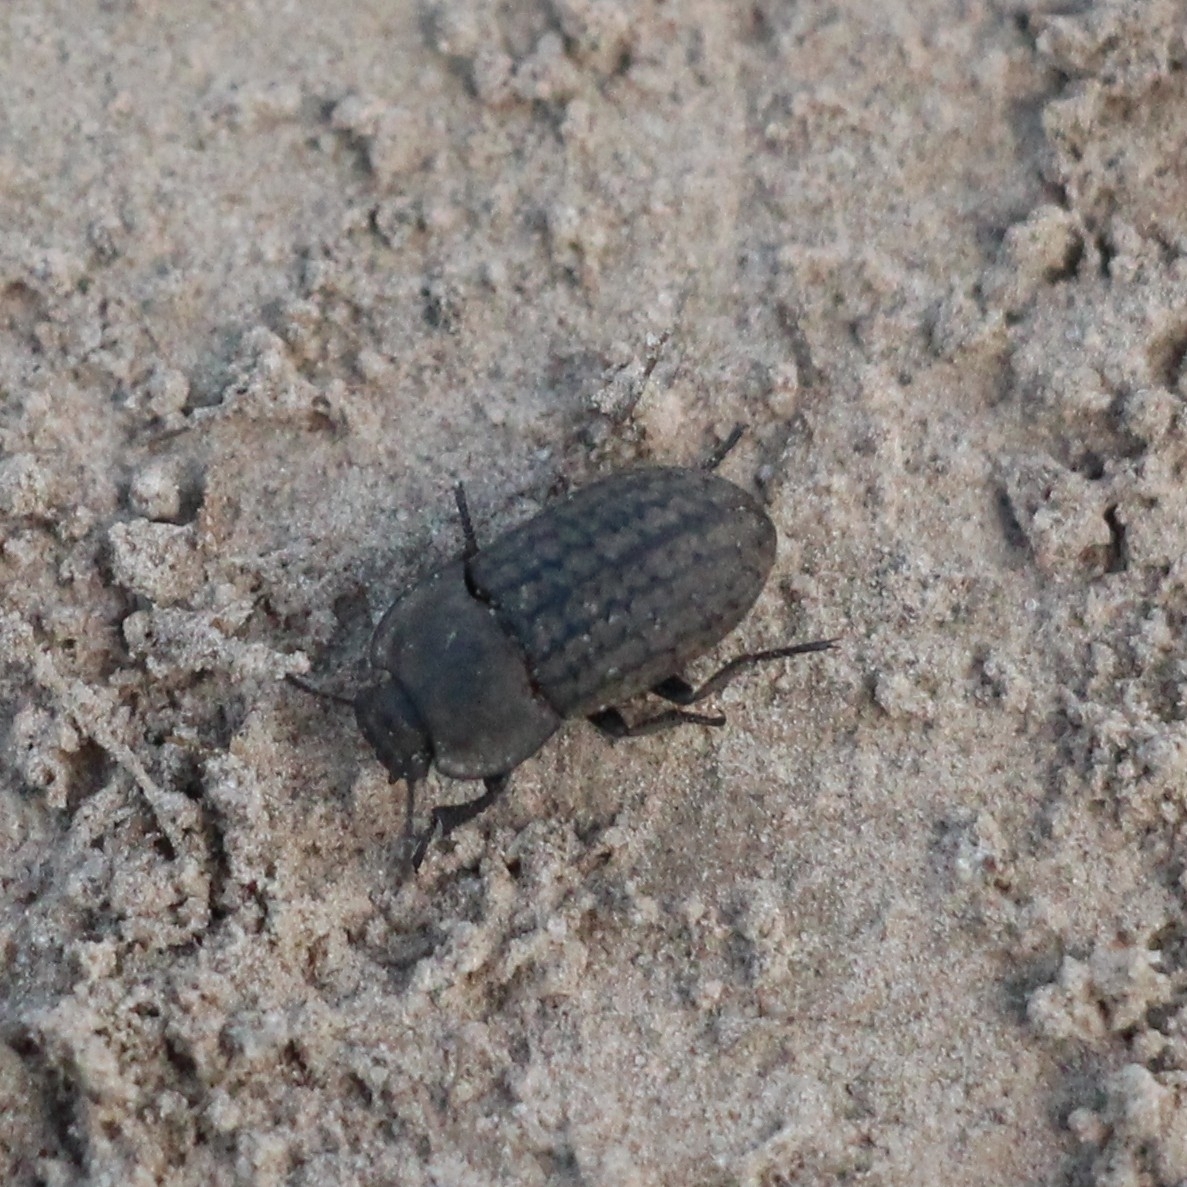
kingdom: Animalia
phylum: Arthropoda
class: Insecta
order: Coleoptera
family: Tenebrionidae
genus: Opatrum
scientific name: Opatrum sabulosum
